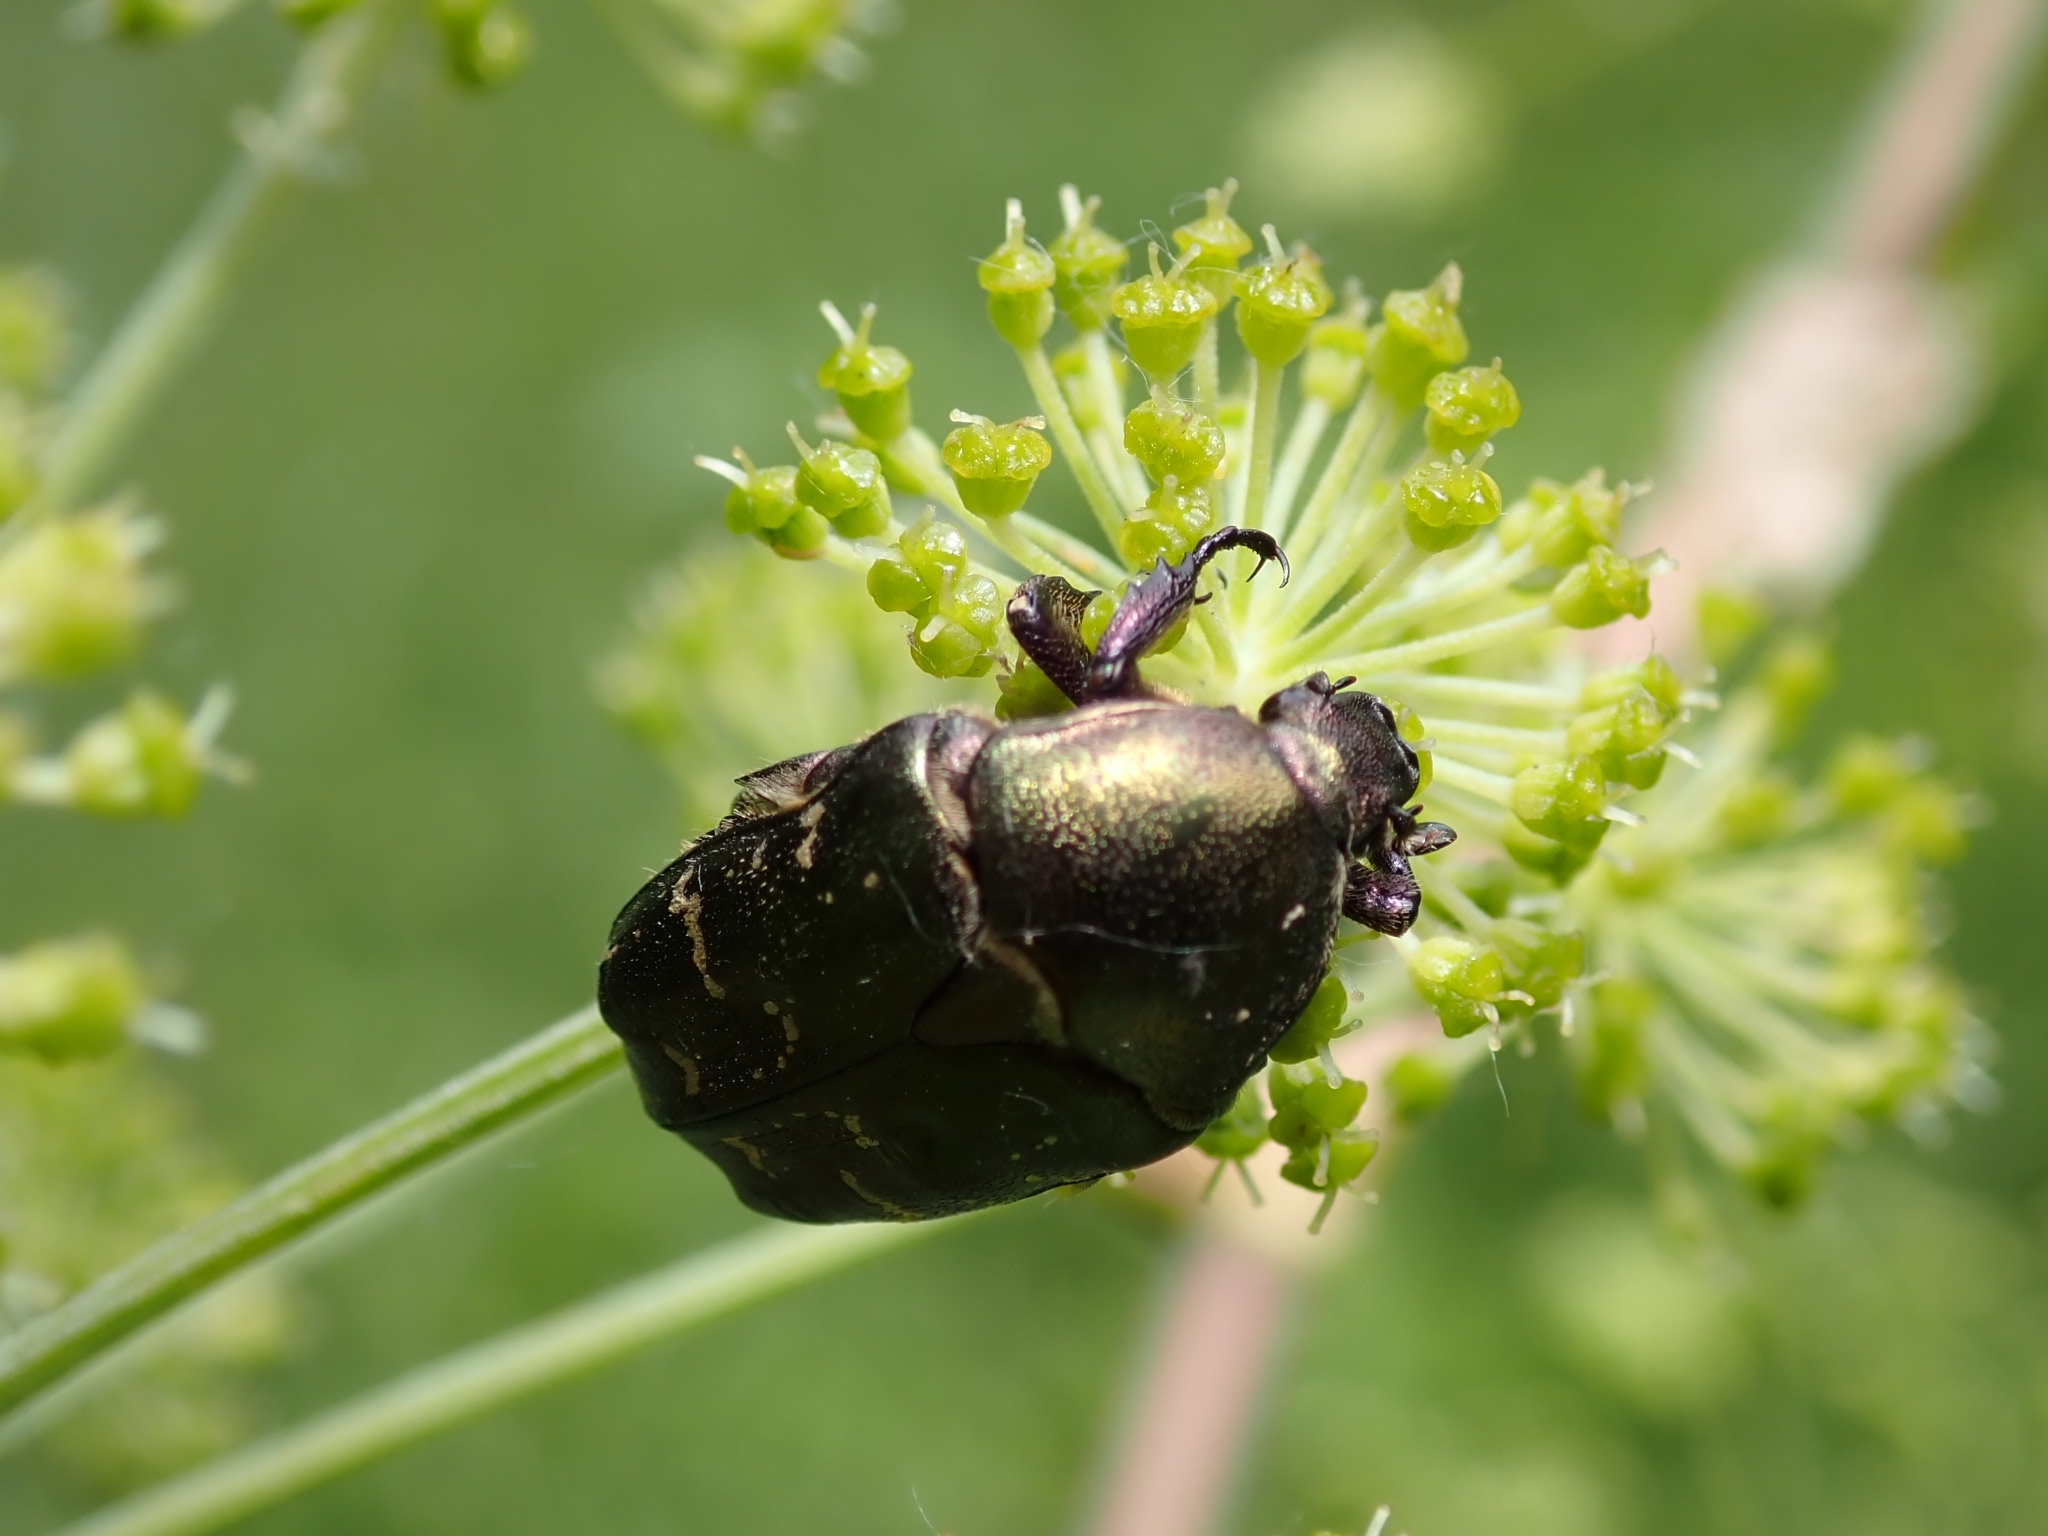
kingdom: Animalia
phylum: Arthropoda
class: Insecta
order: Coleoptera
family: Scarabaeidae
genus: Protaetia
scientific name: Protaetia cuprea
